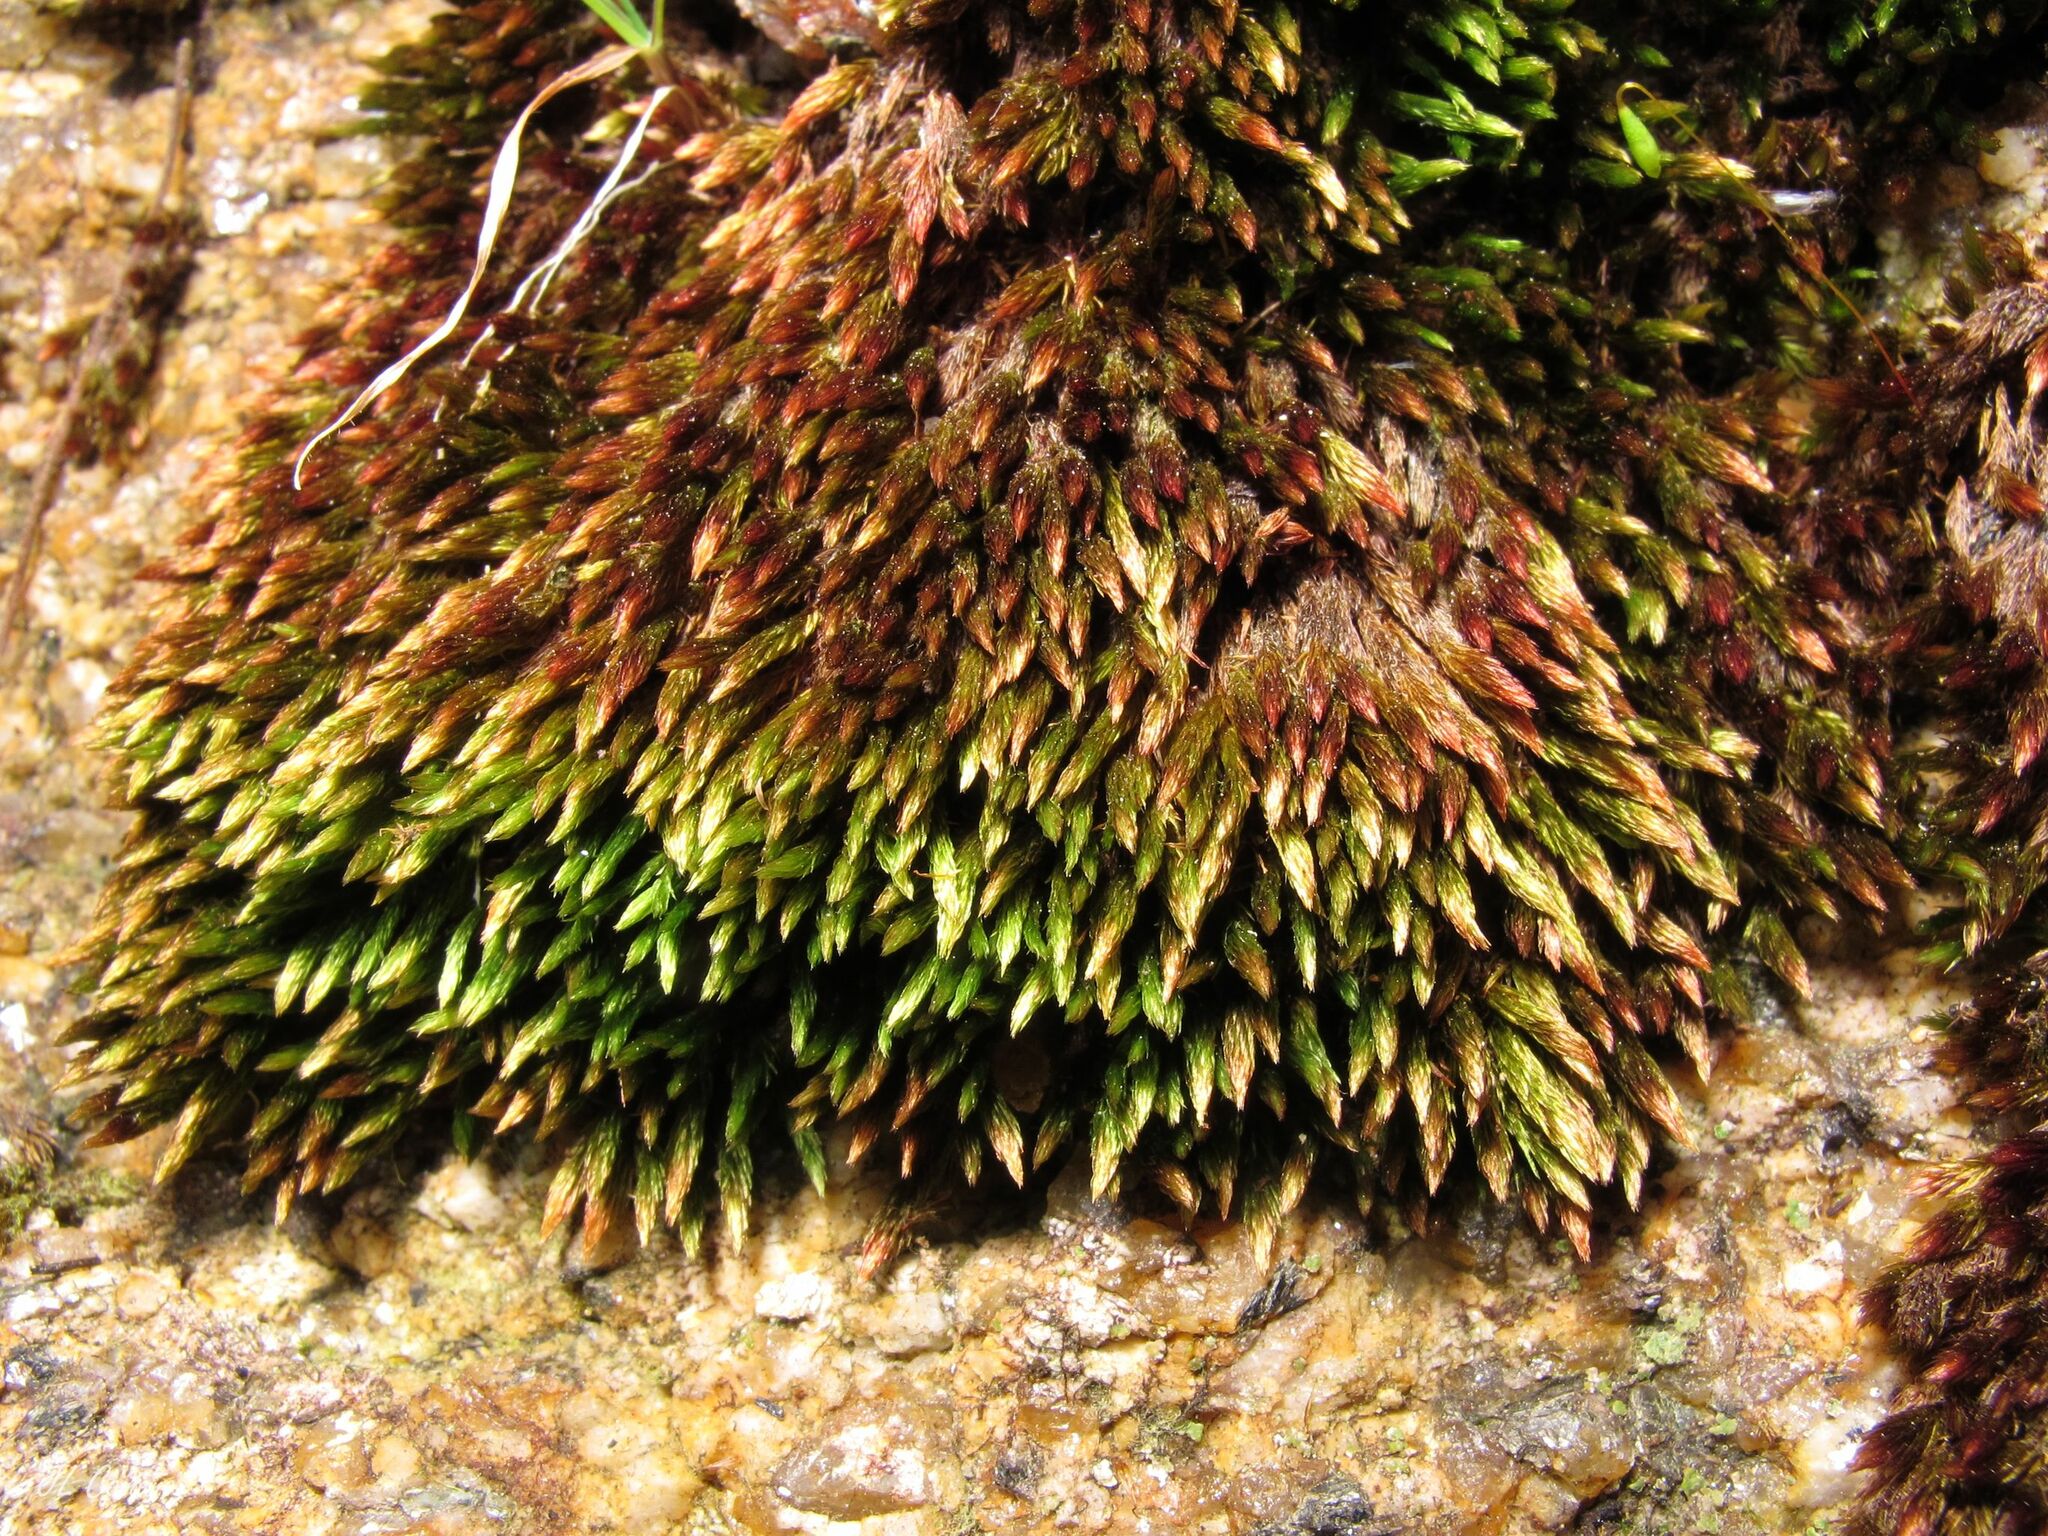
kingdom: Plantae
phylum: Bryophyta
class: Bryopsida
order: Bryales
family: Bryaceae
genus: Imbribryum
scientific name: Imbribryum alpinum
